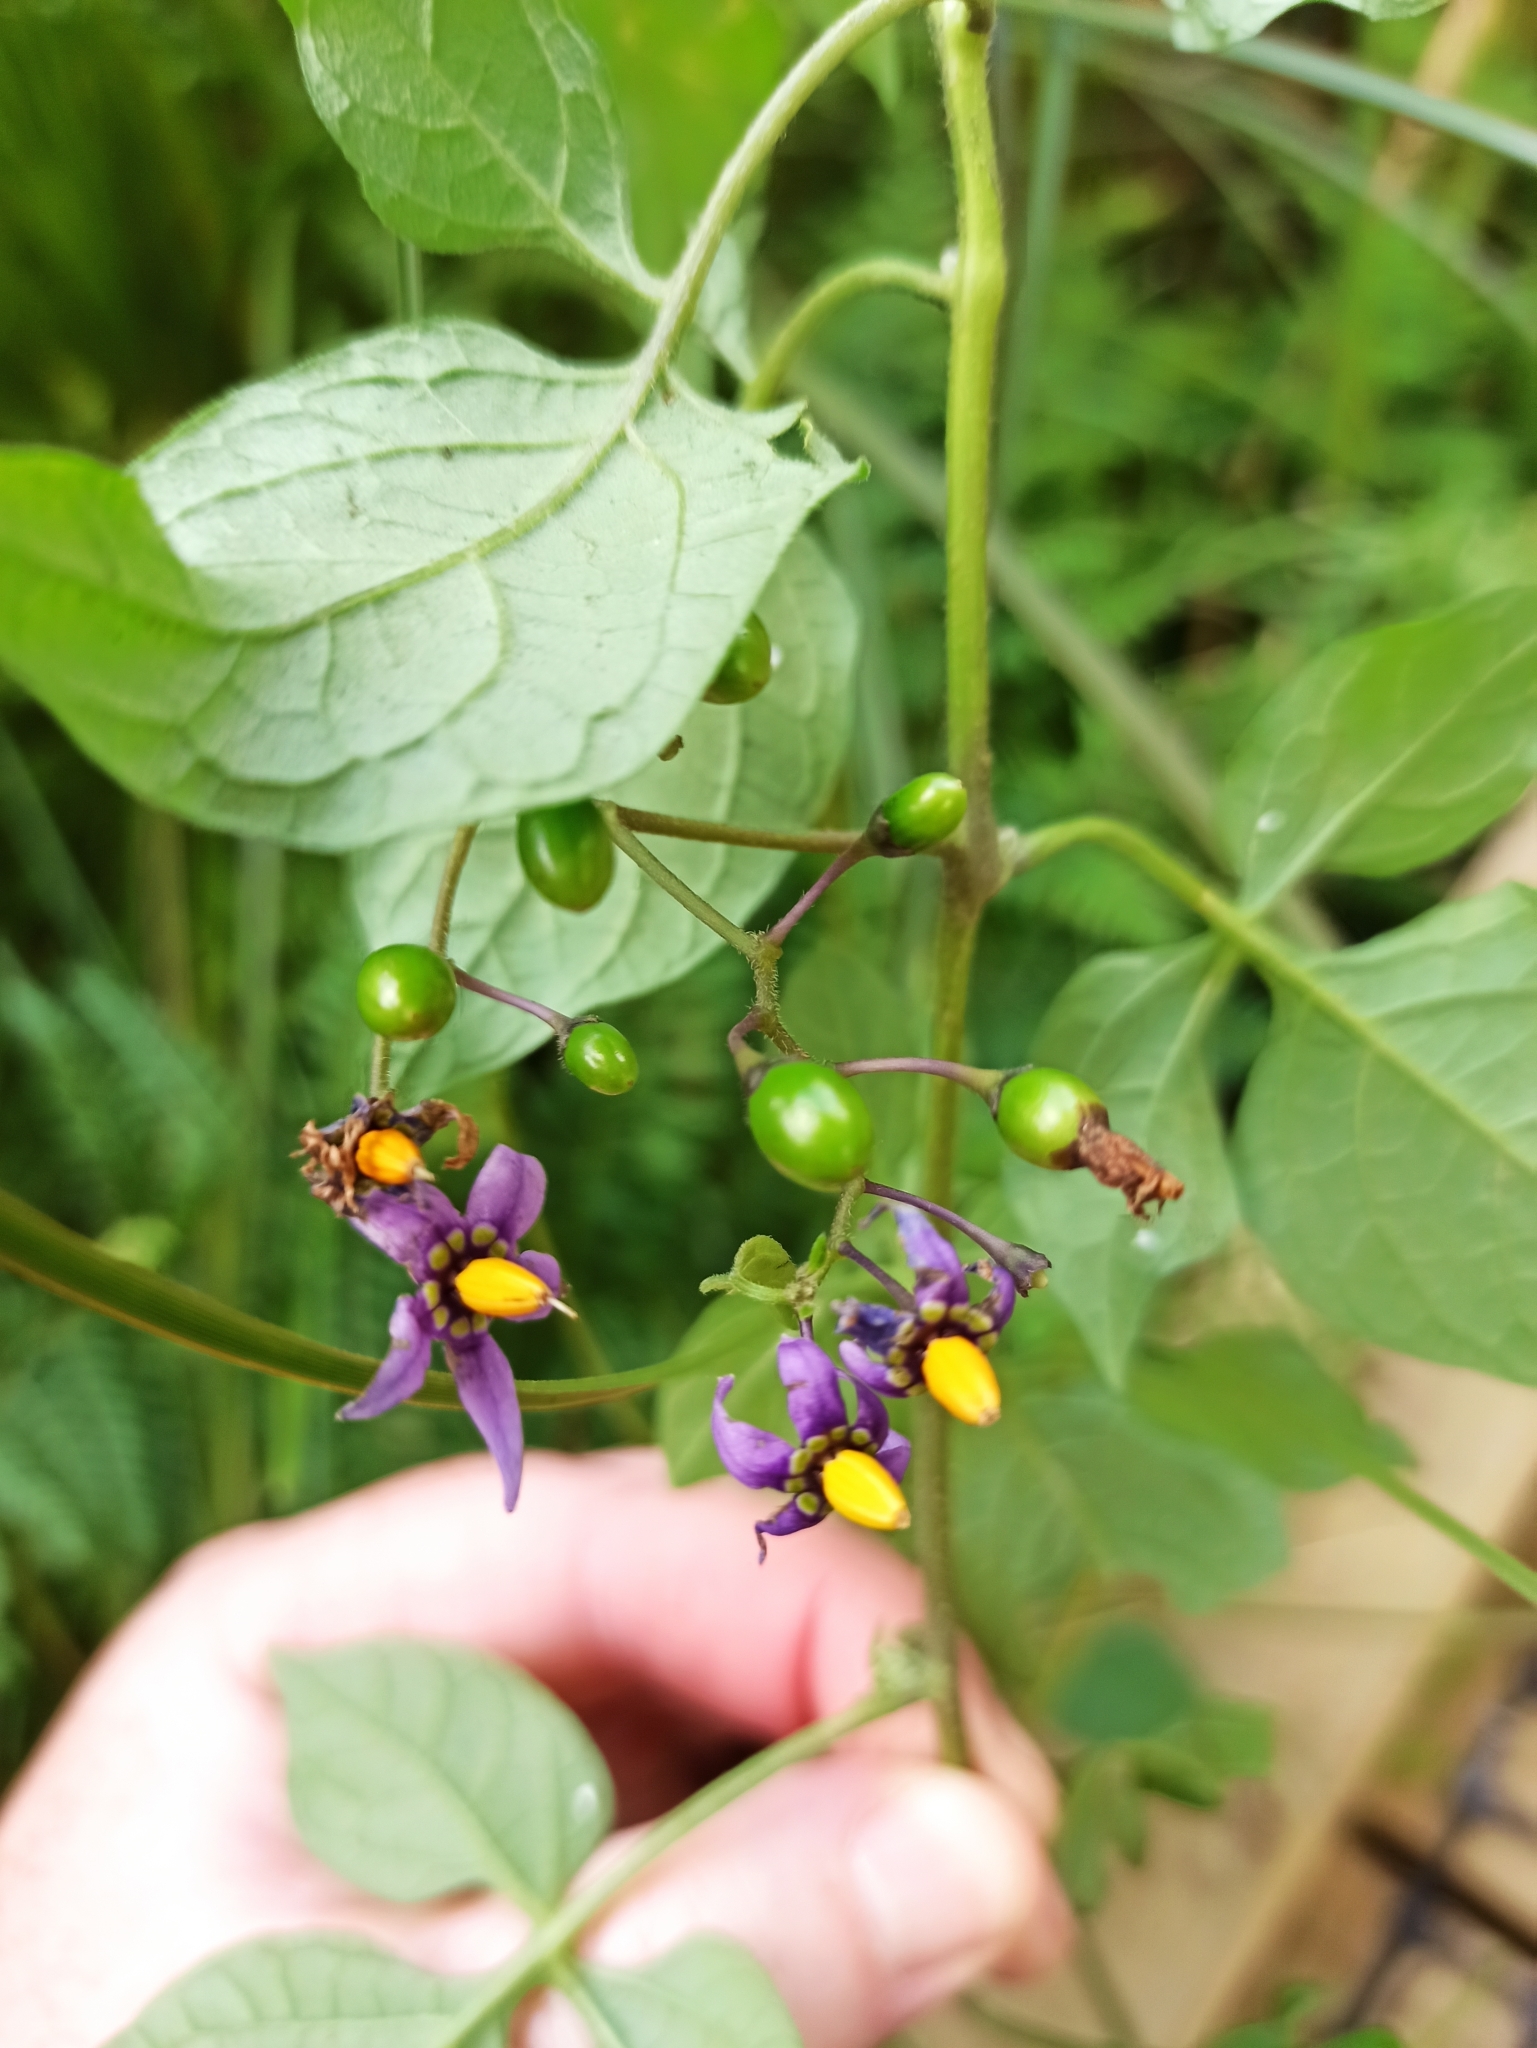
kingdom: Plantae
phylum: Tracheophyta
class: Magnoliopsida
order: Solanales
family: Solanaceae
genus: Solanum
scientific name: Solanum dulcamara
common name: Climbing nightshade
